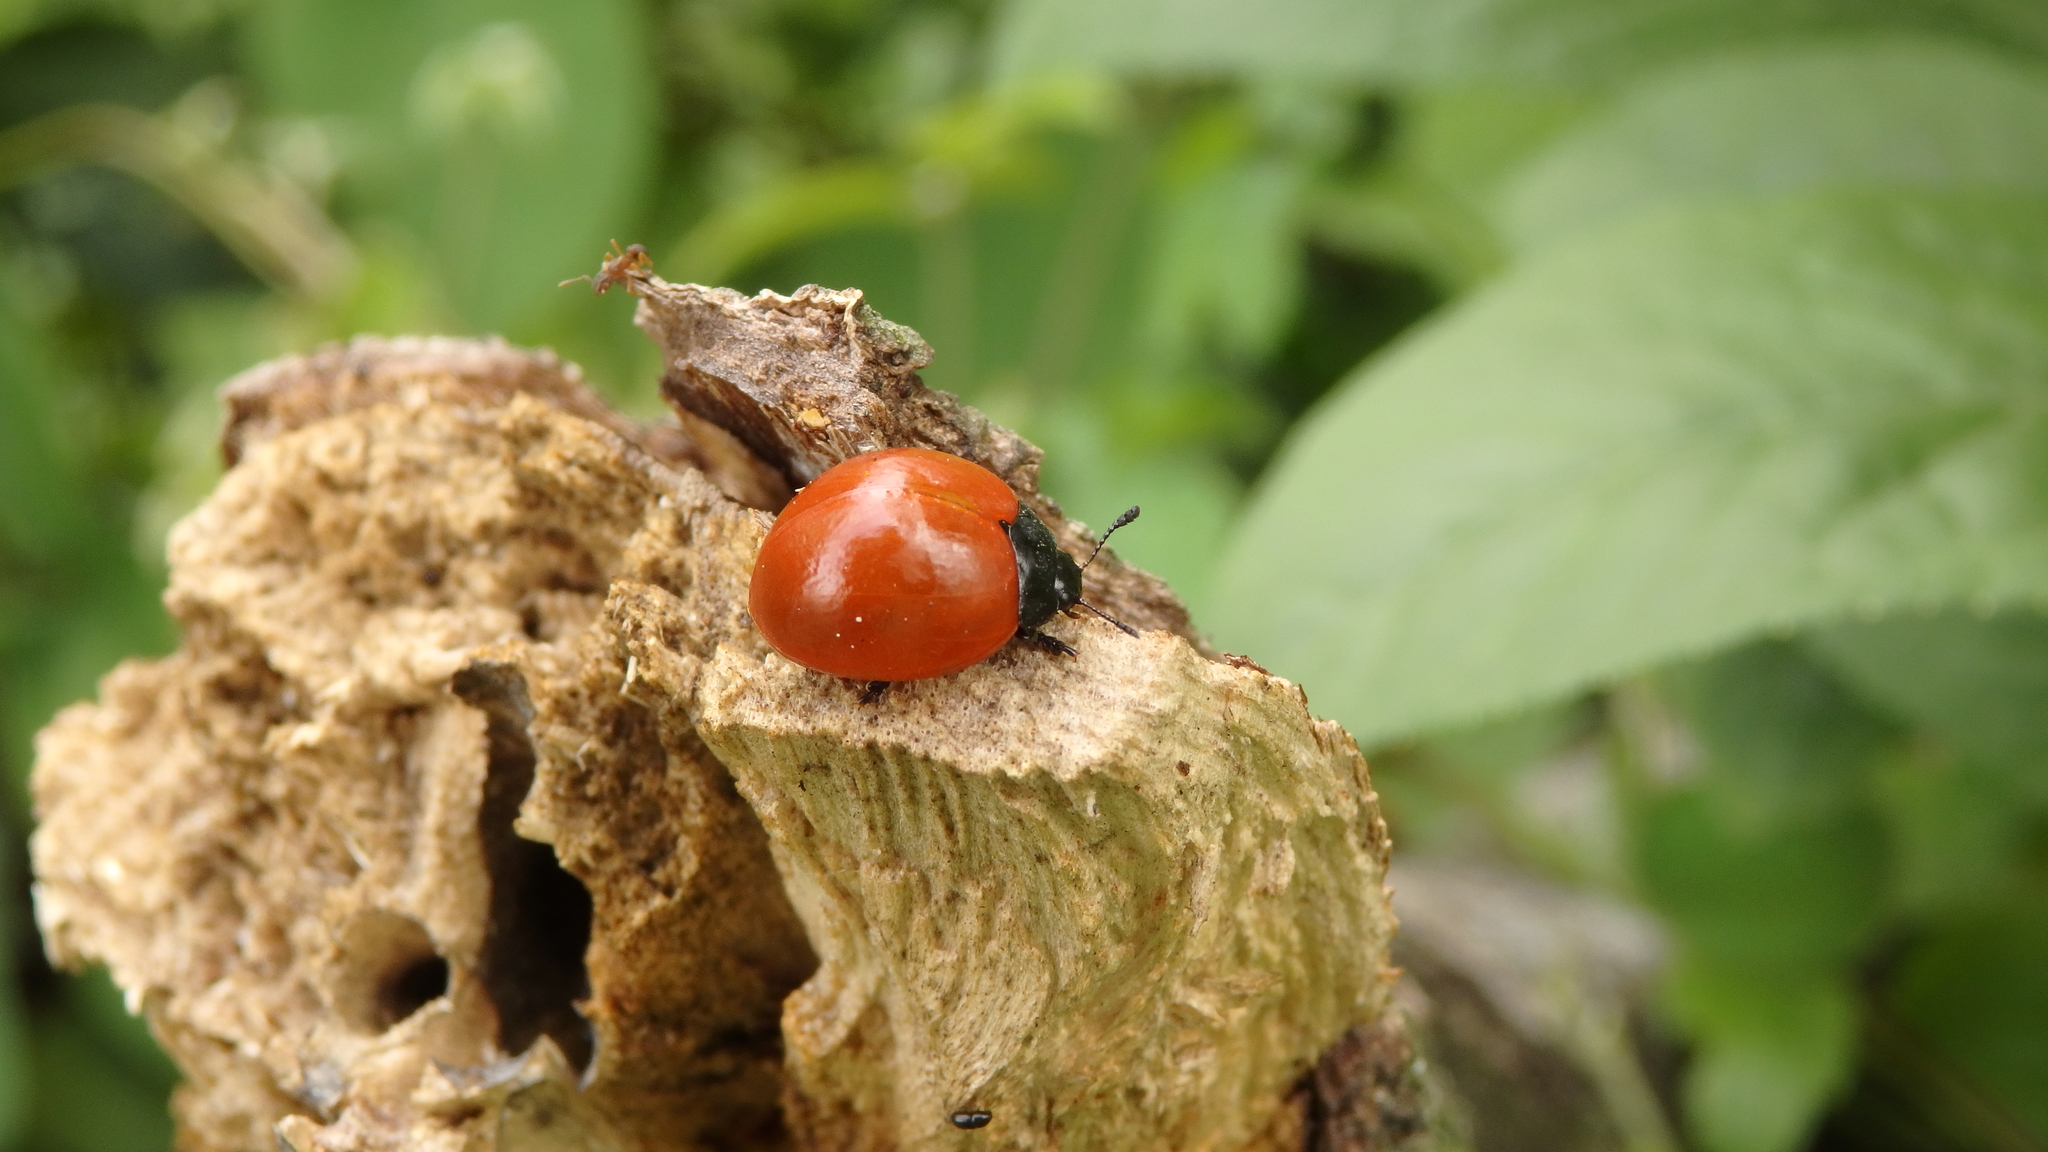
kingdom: Animalia
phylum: Arthropoda
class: Insecta
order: Coleoptera
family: Erotylidae
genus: Aegithus
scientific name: Aegithus
